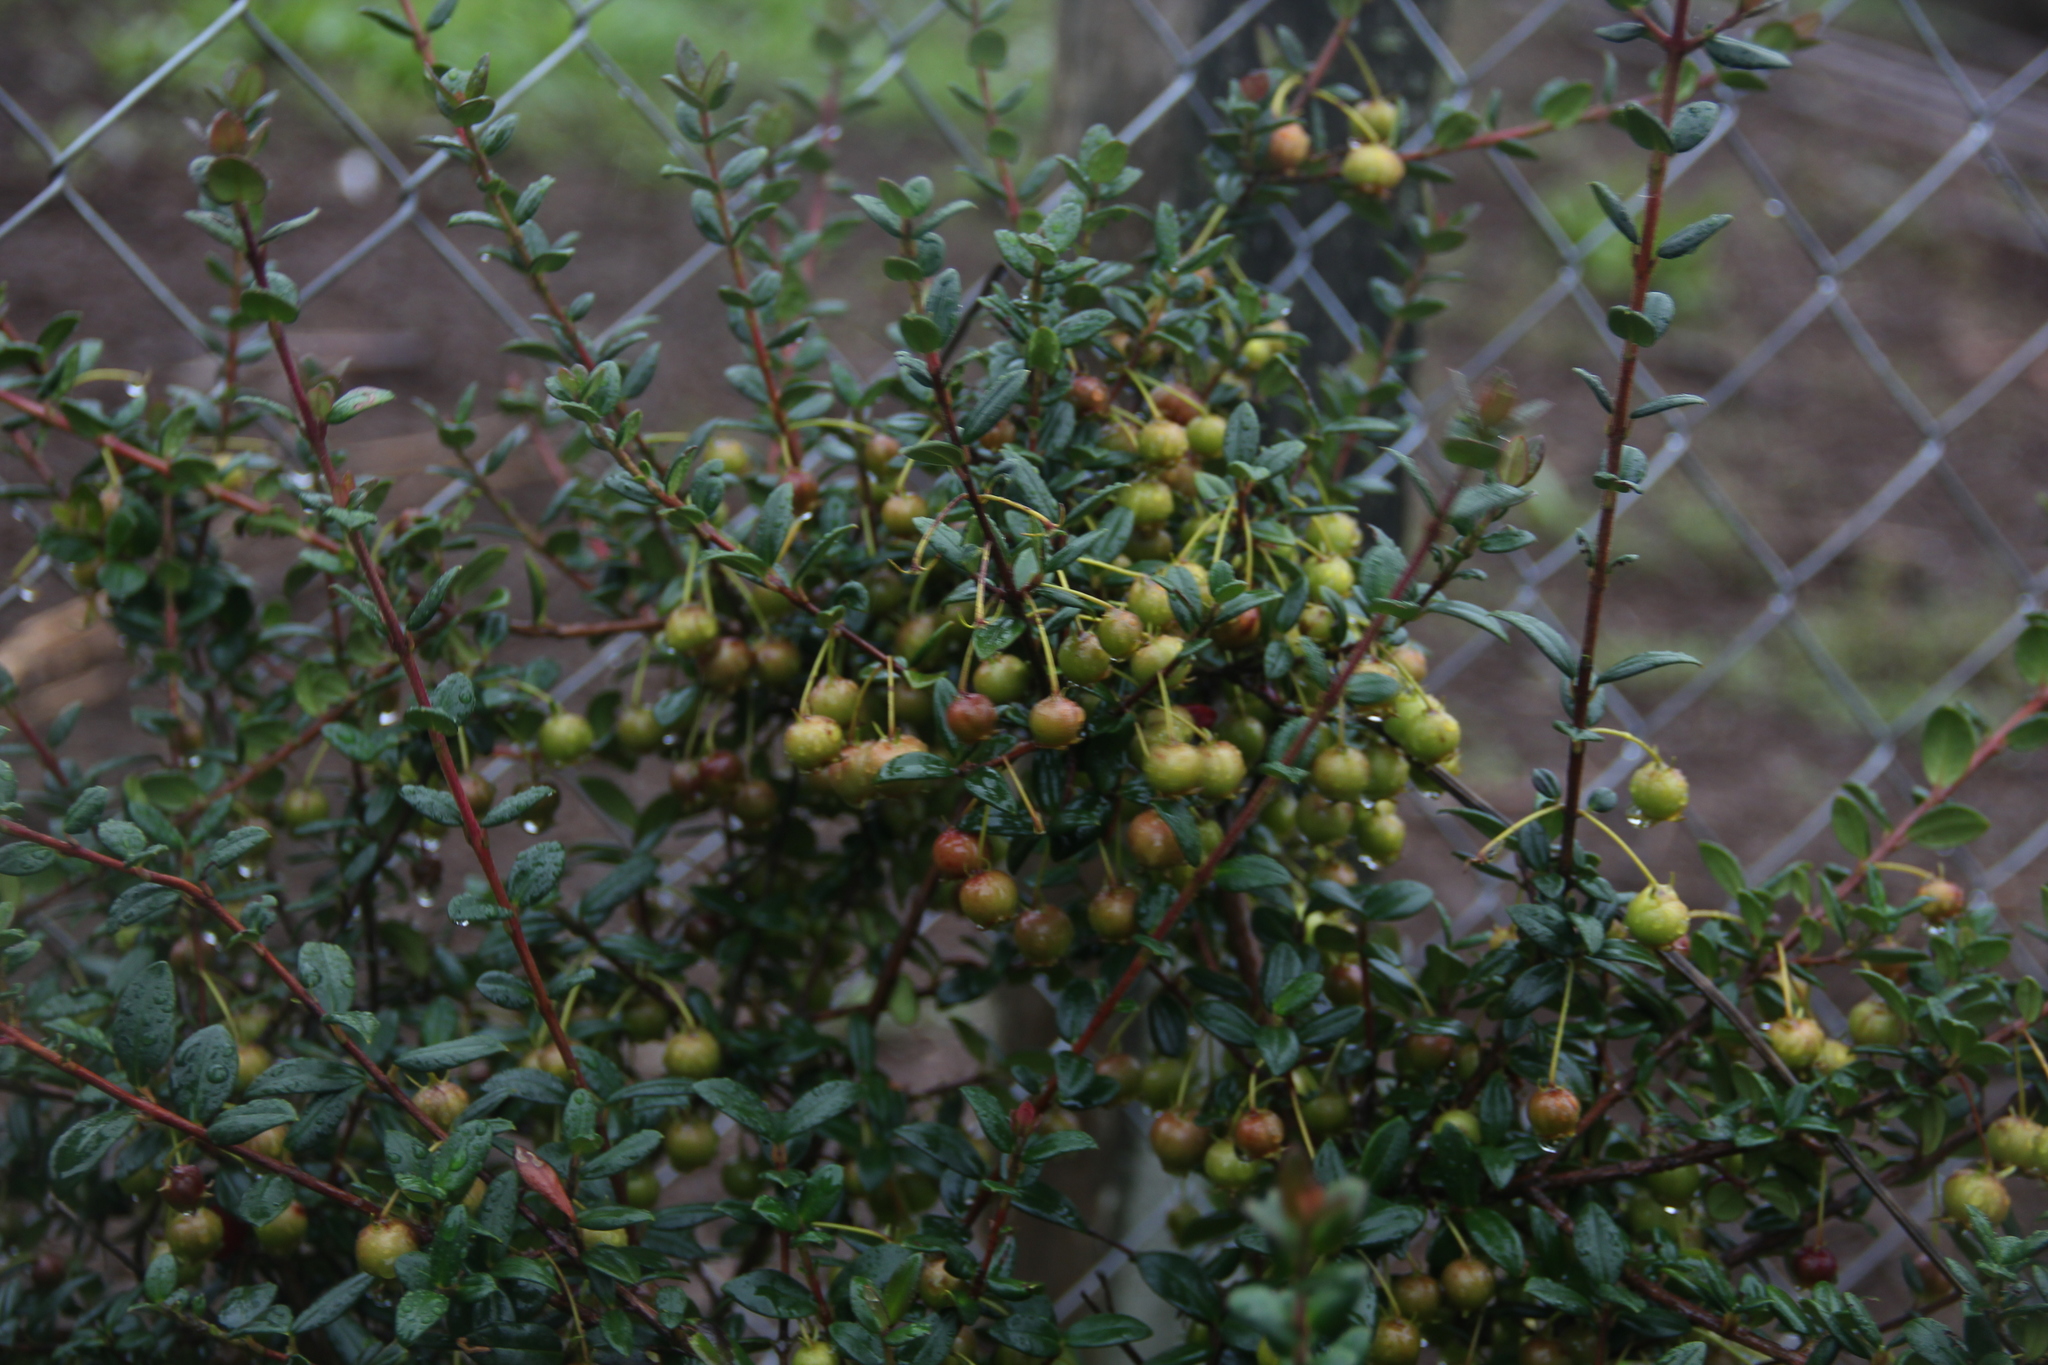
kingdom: Plantae
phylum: Tracheophyta
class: Magnoliopsida
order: Myrtales
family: Myrtaceae
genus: Ugni
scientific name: Ugni molinae
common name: Chilean-guava
